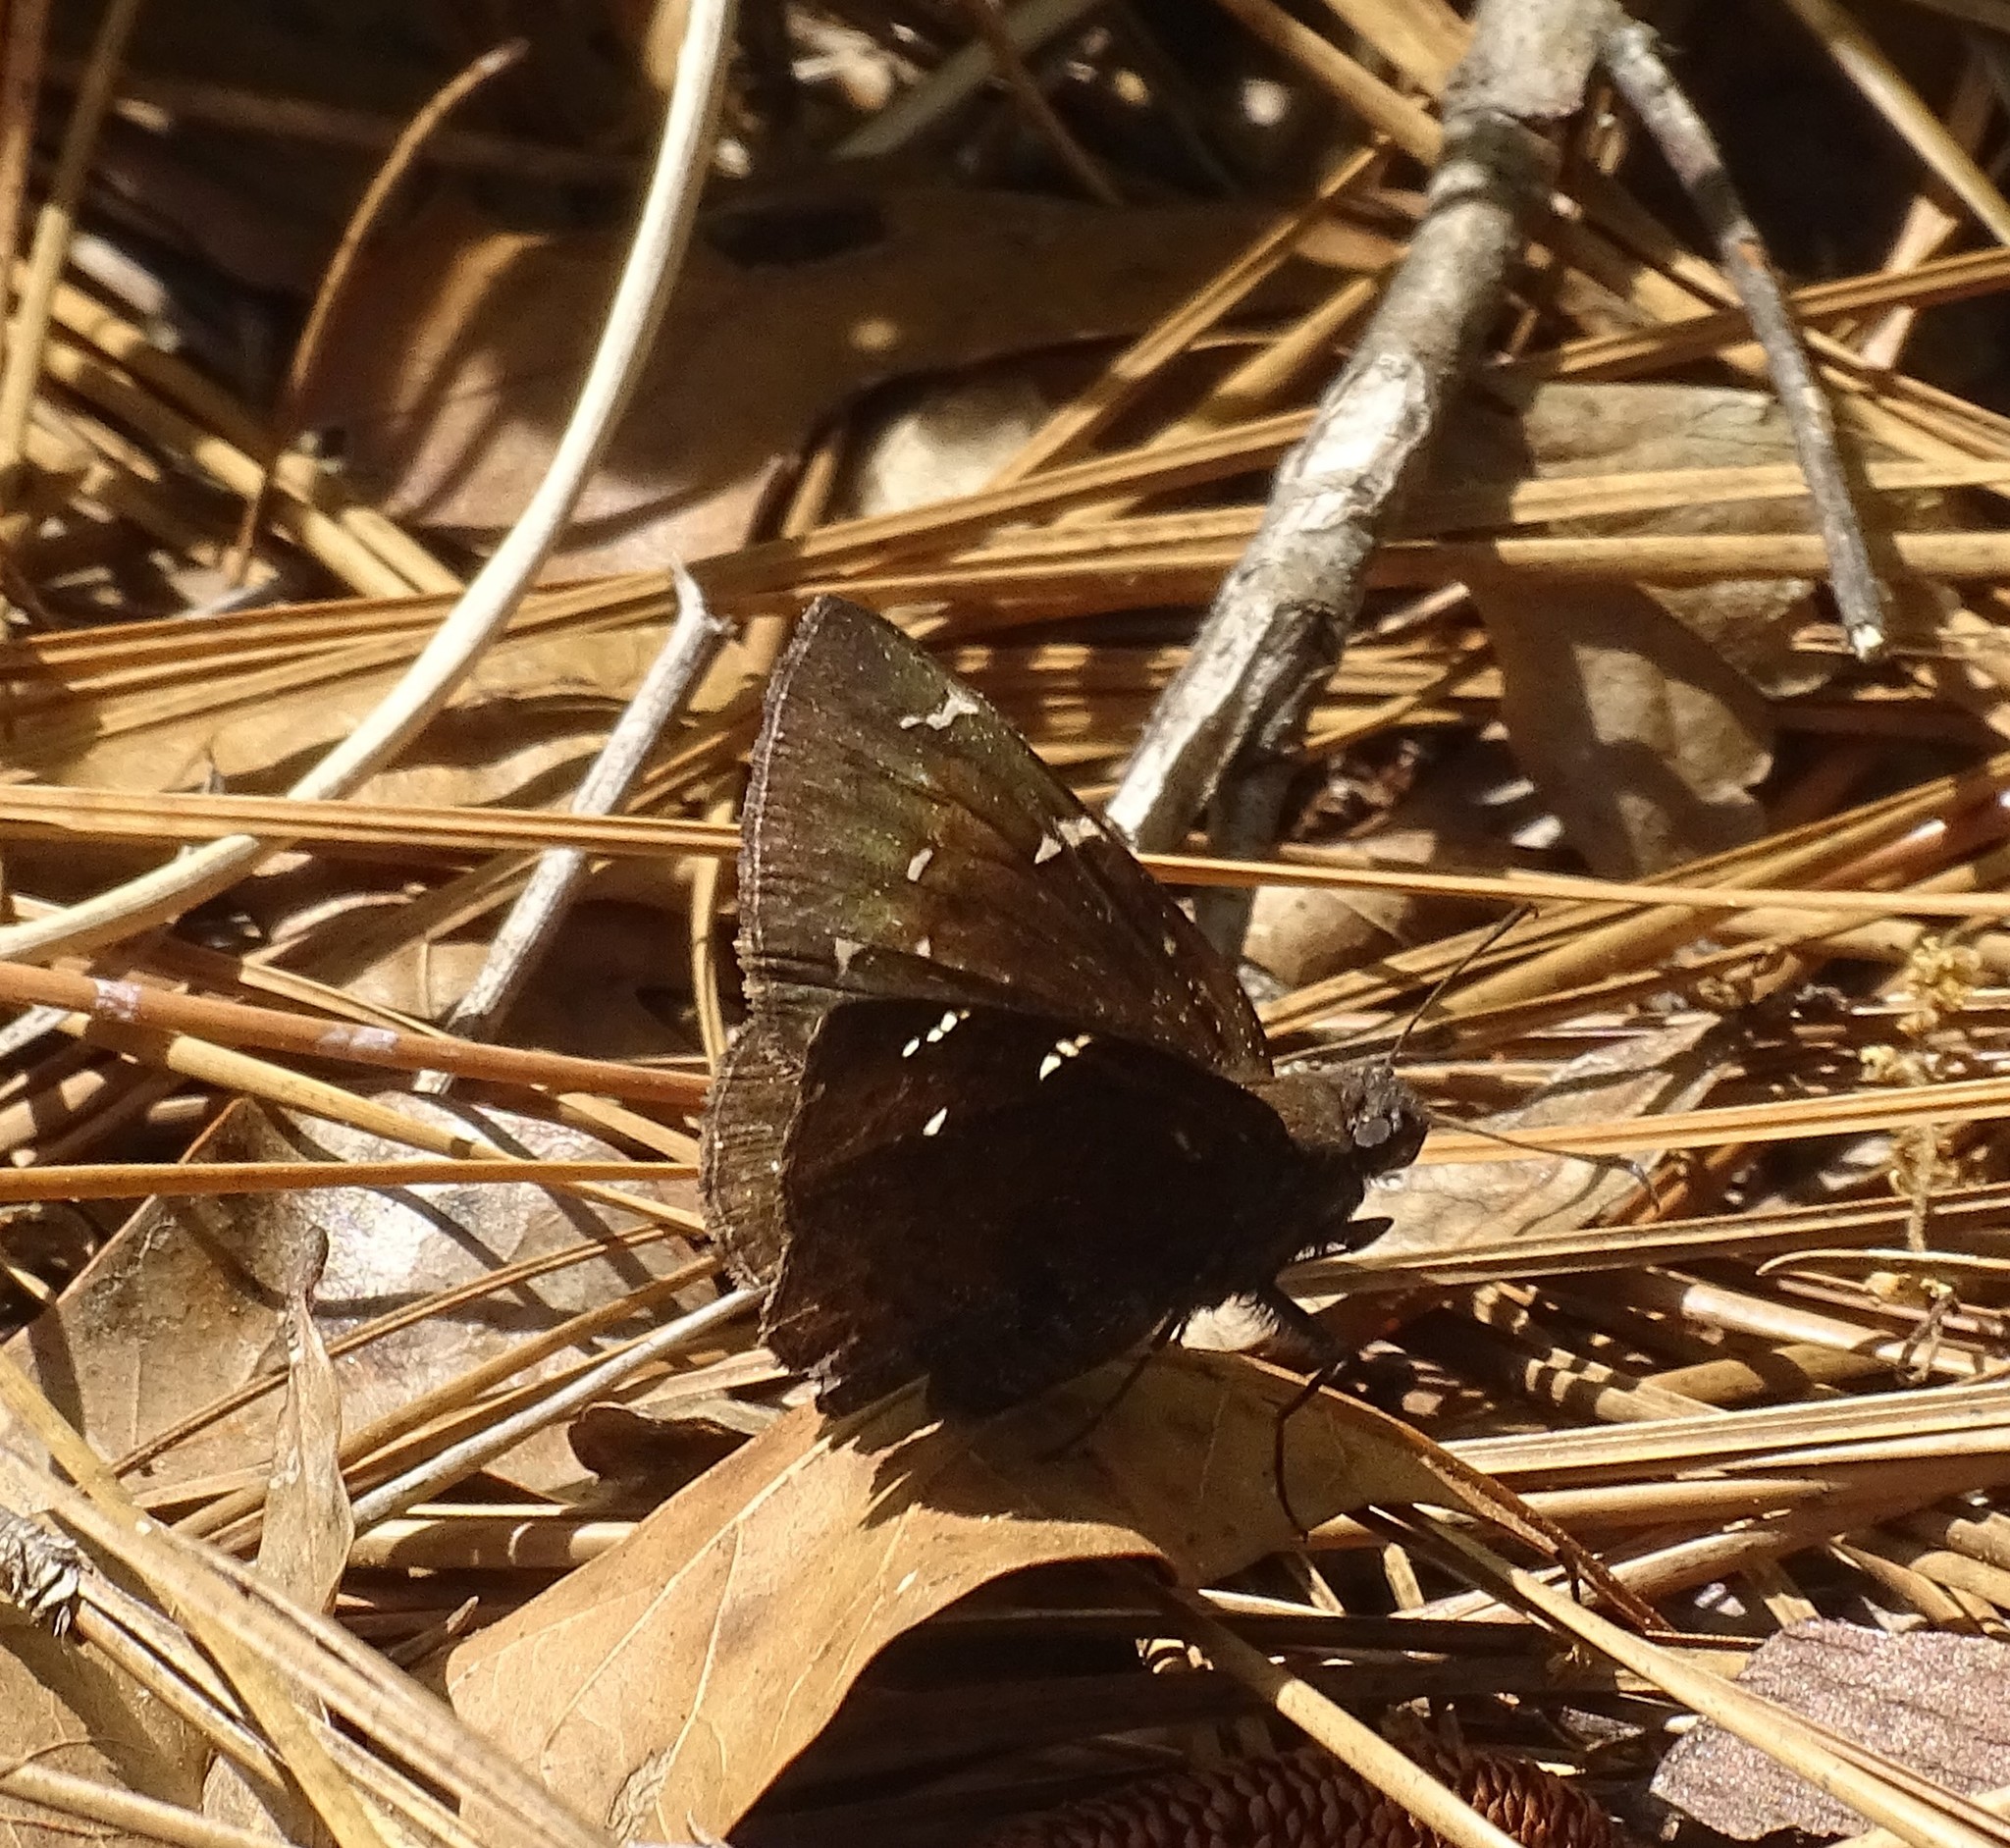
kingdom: Animalia
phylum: Arthropoda
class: Insecta
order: Lepidoptera
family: Hesperiidae
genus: Thorybes
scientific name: Thorybes pylades
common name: Northern cloudywing
